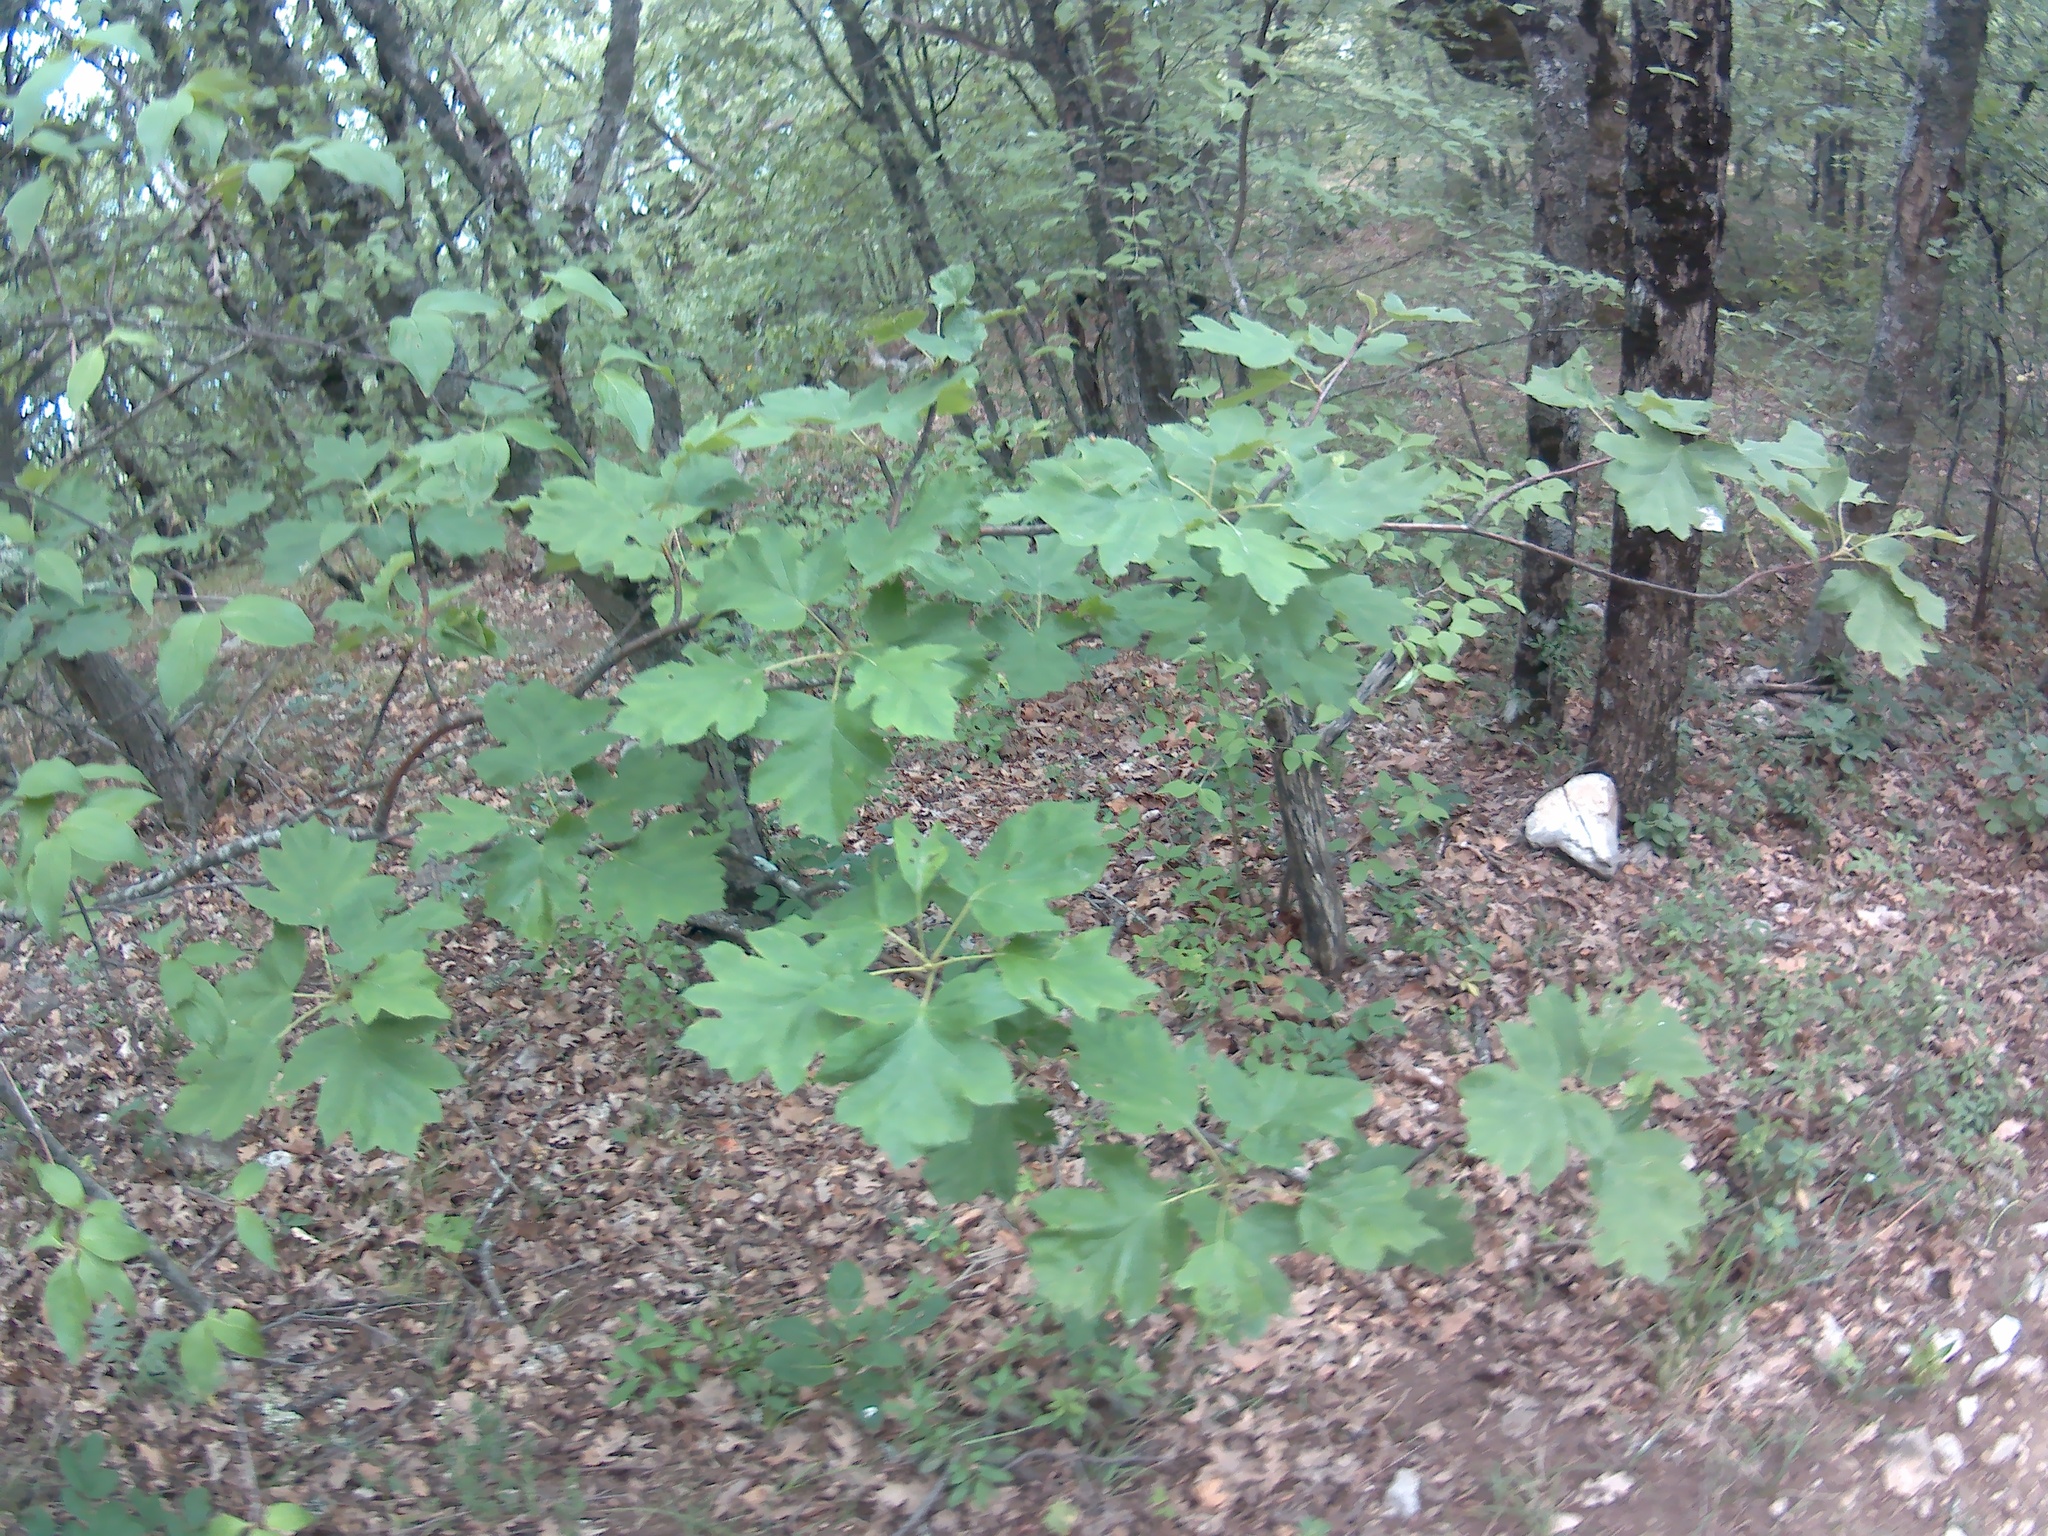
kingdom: Plantae
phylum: Tracheophyta
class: Magnoliopsida
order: Rosales
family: Rosaceae
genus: Torminalis
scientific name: Torminalis glaberrima
